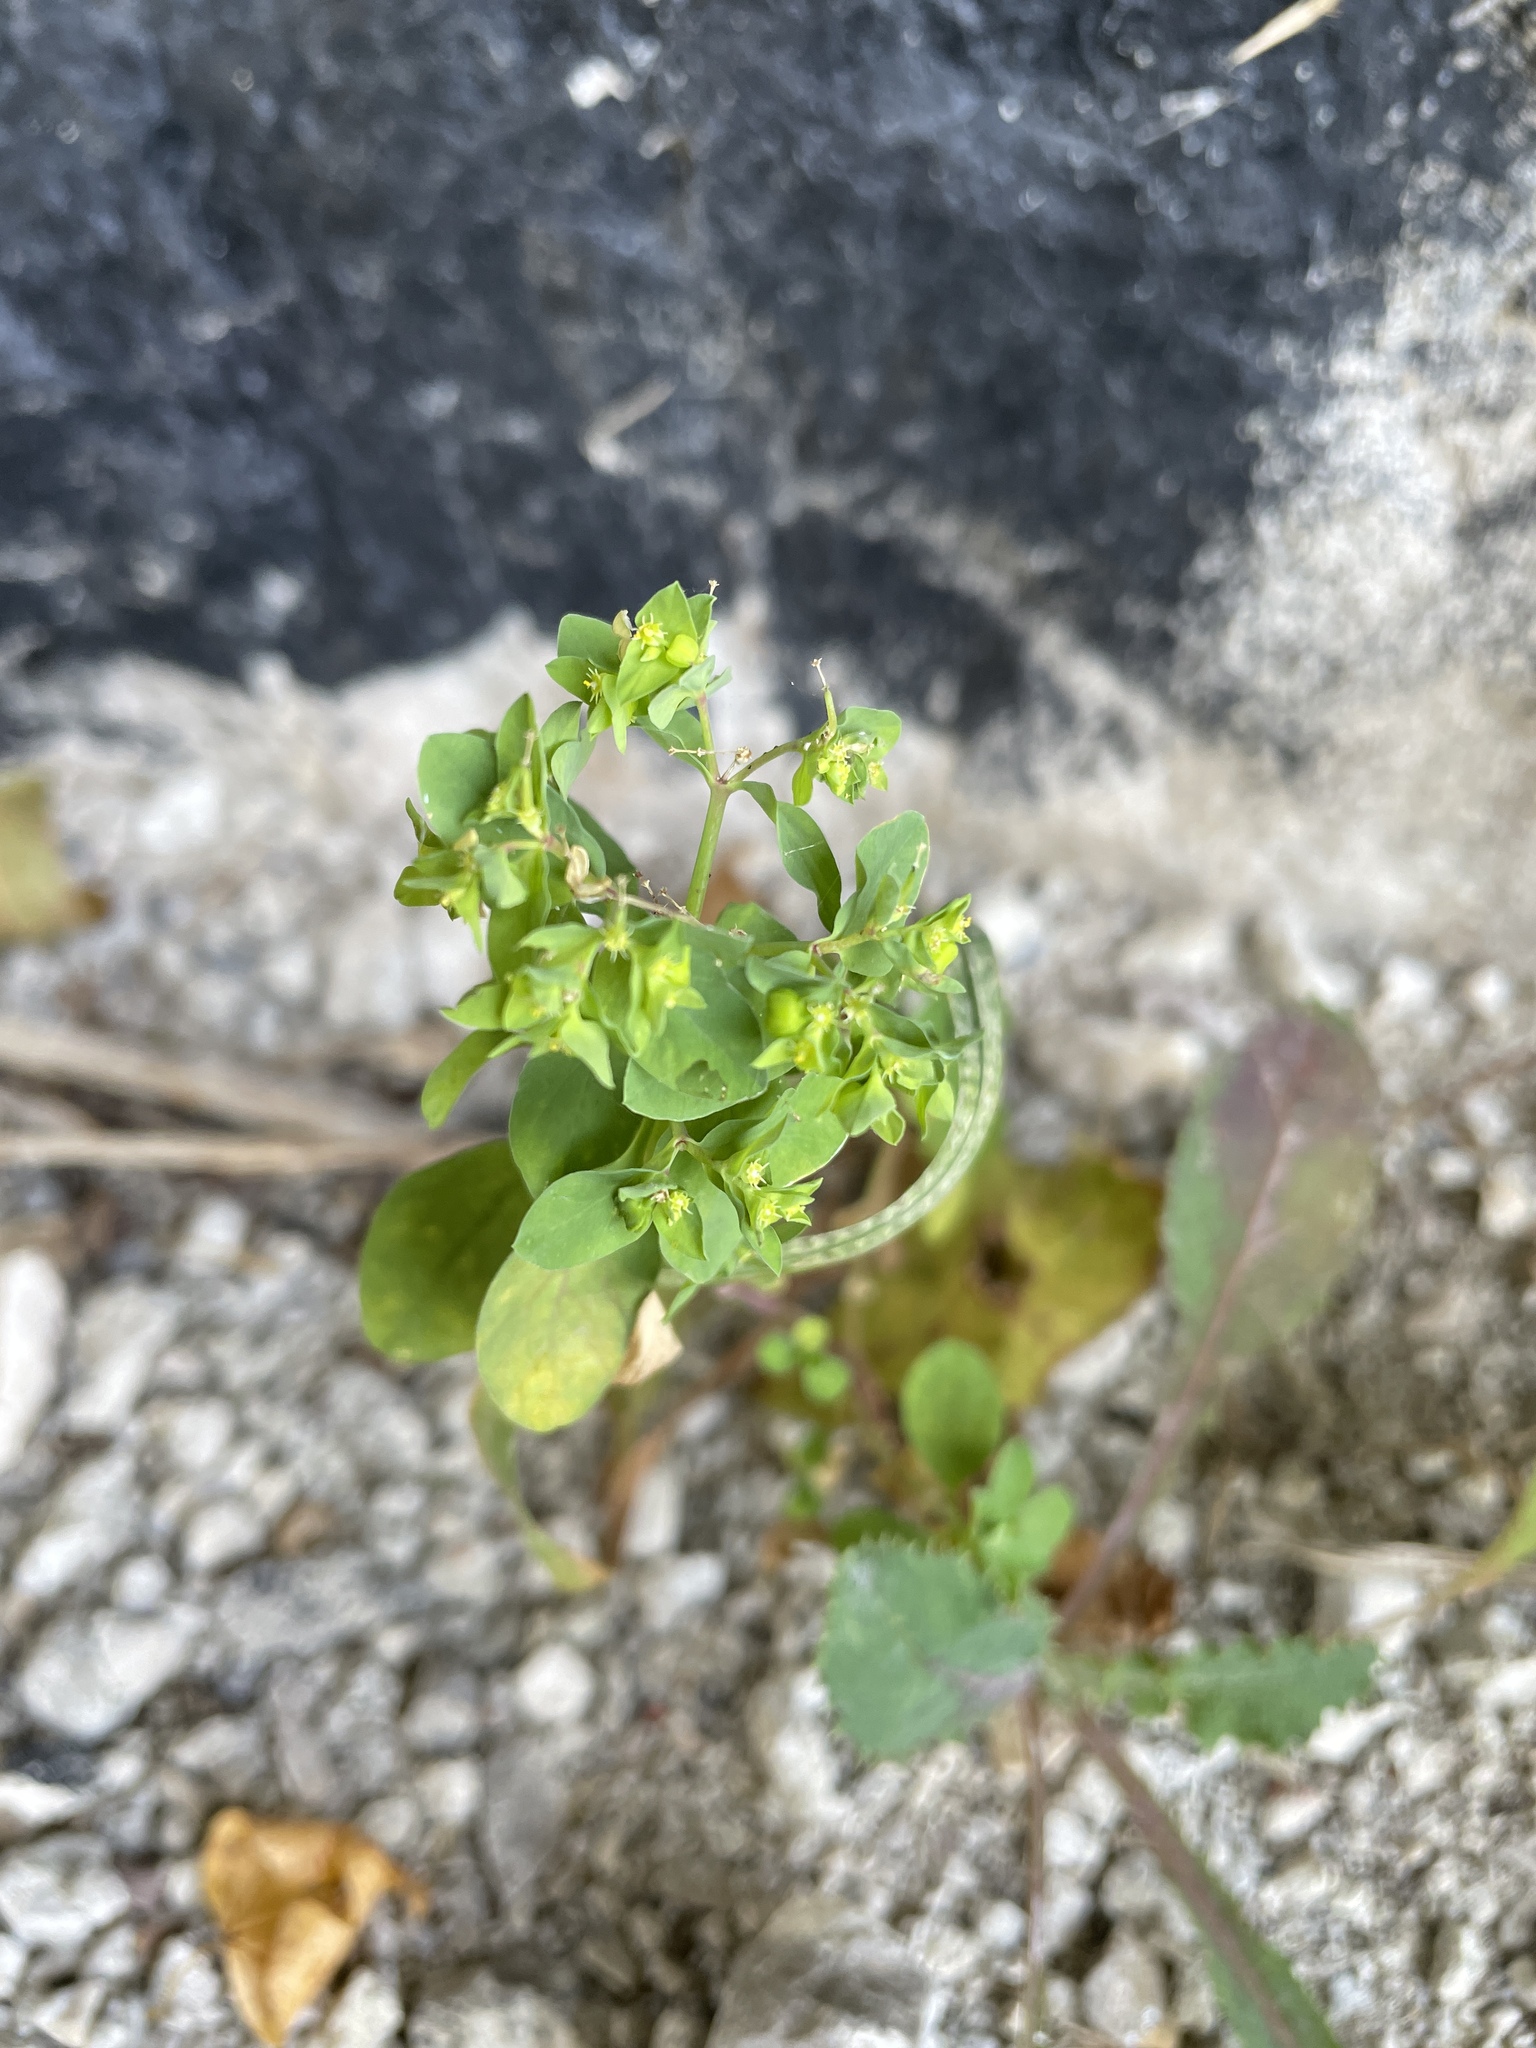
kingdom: Plantae
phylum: Tracheophyta
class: Magnoliopsida
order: Malpighiales
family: Euphorbiaceae
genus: Euphorbia
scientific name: Euphorbia peplus
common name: Petty spurge
